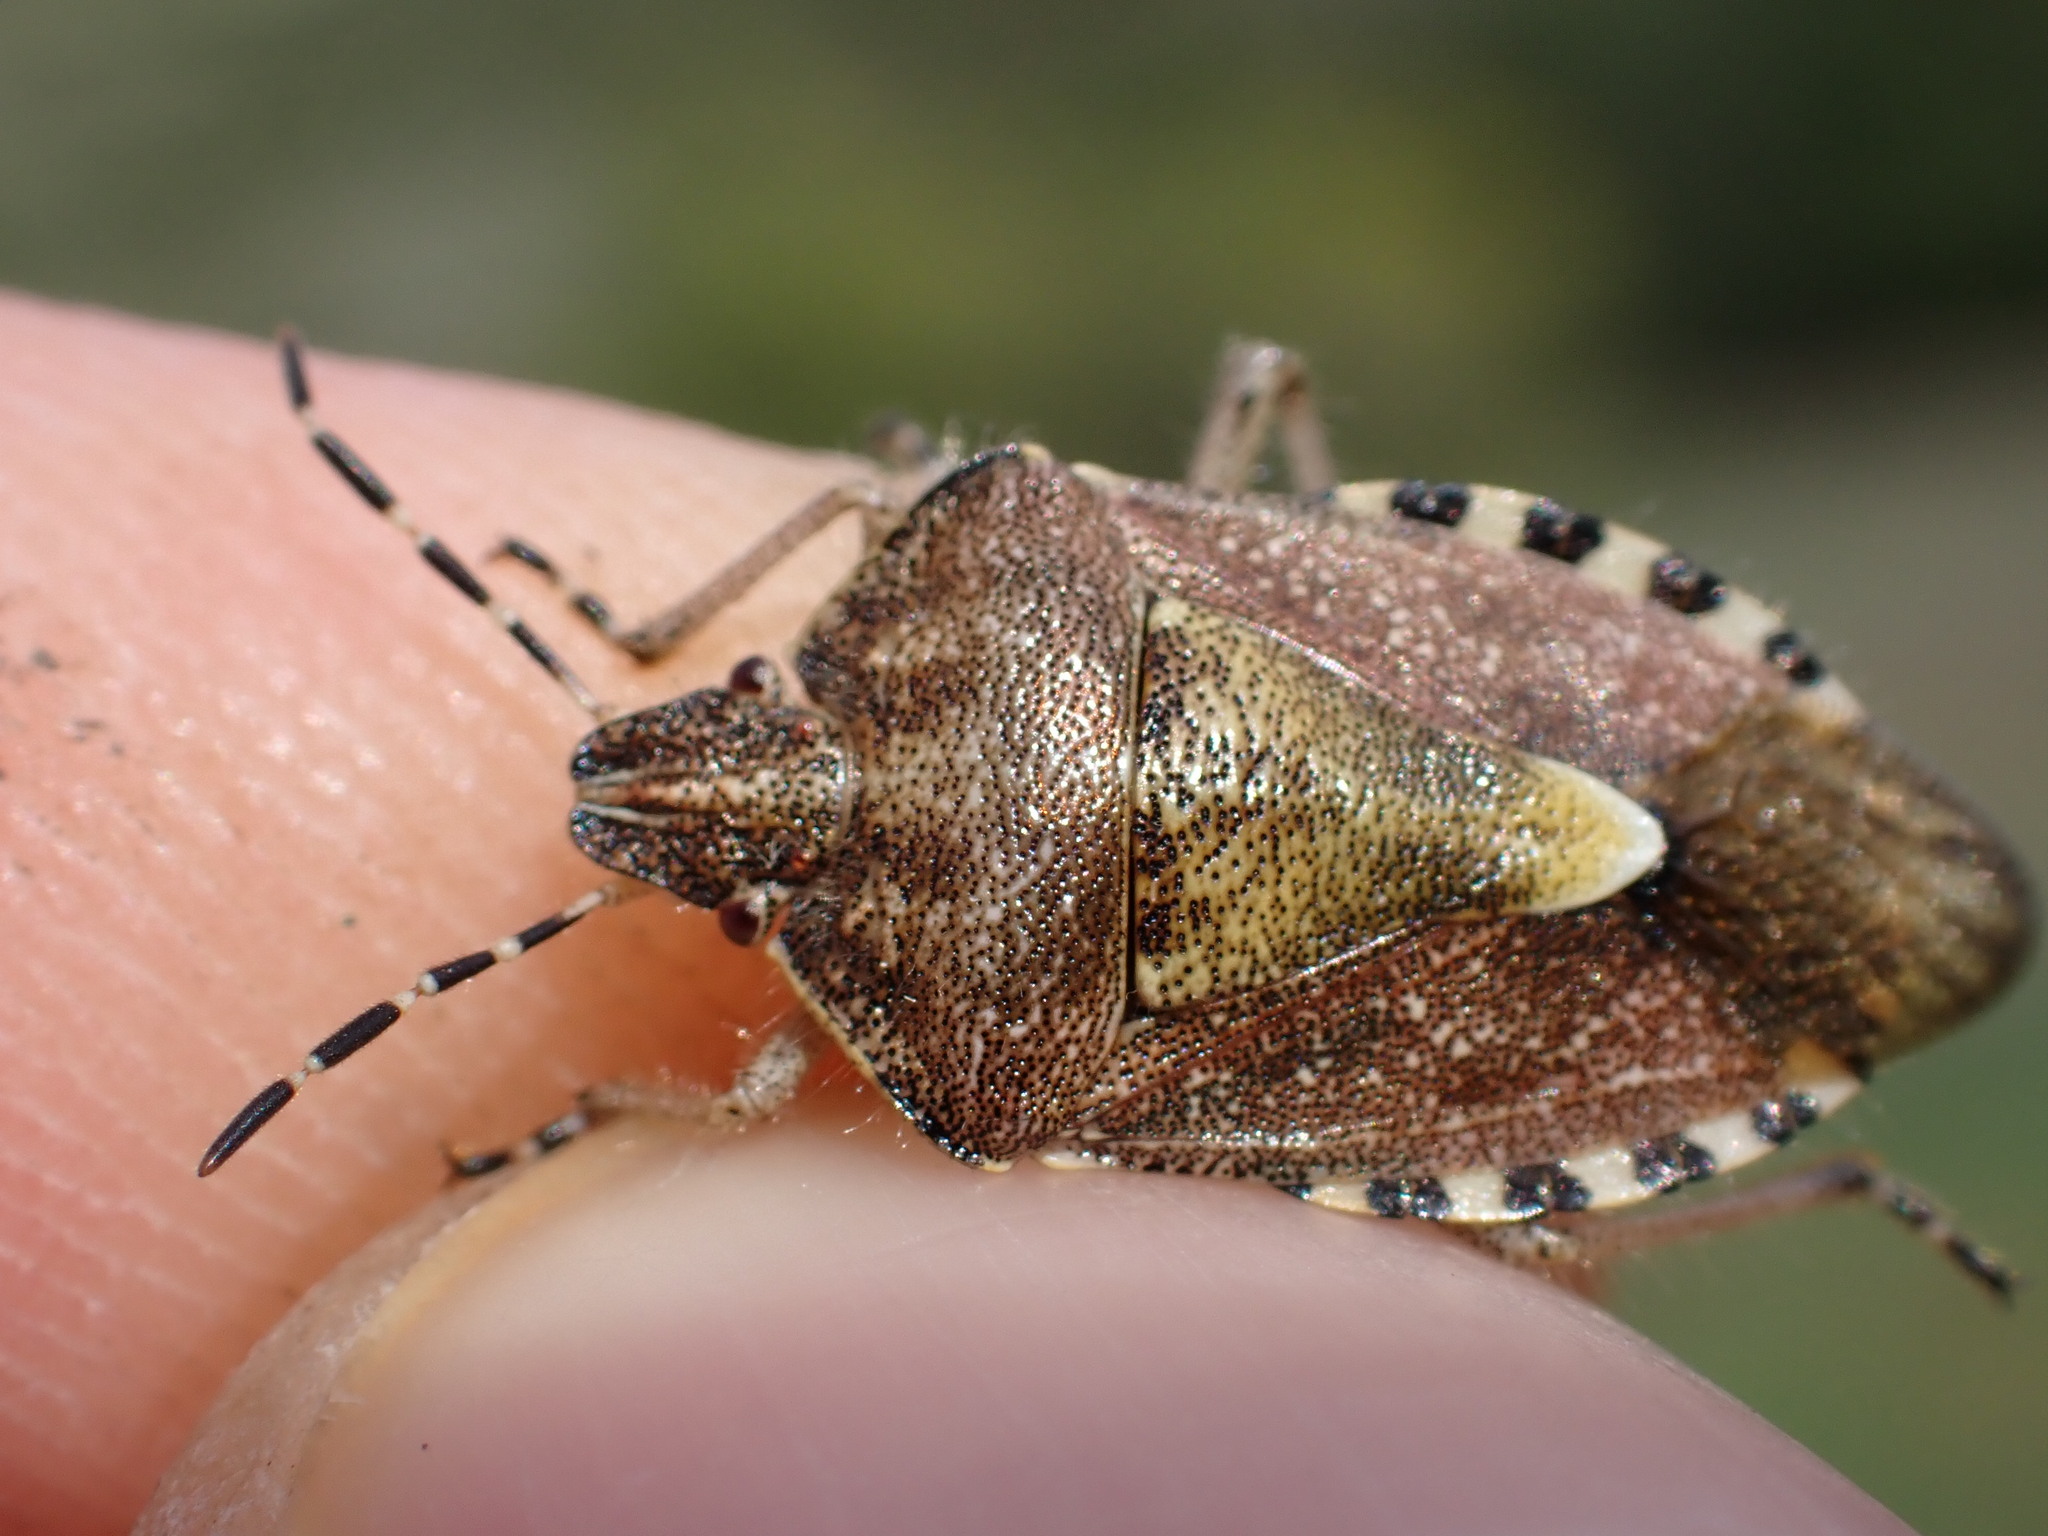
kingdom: Animalia
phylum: Arthropoda
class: Insecta
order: Hemiptera
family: Pentatomidae
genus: Dolycoris
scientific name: Dolycoris baccarum
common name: Sloe bug
